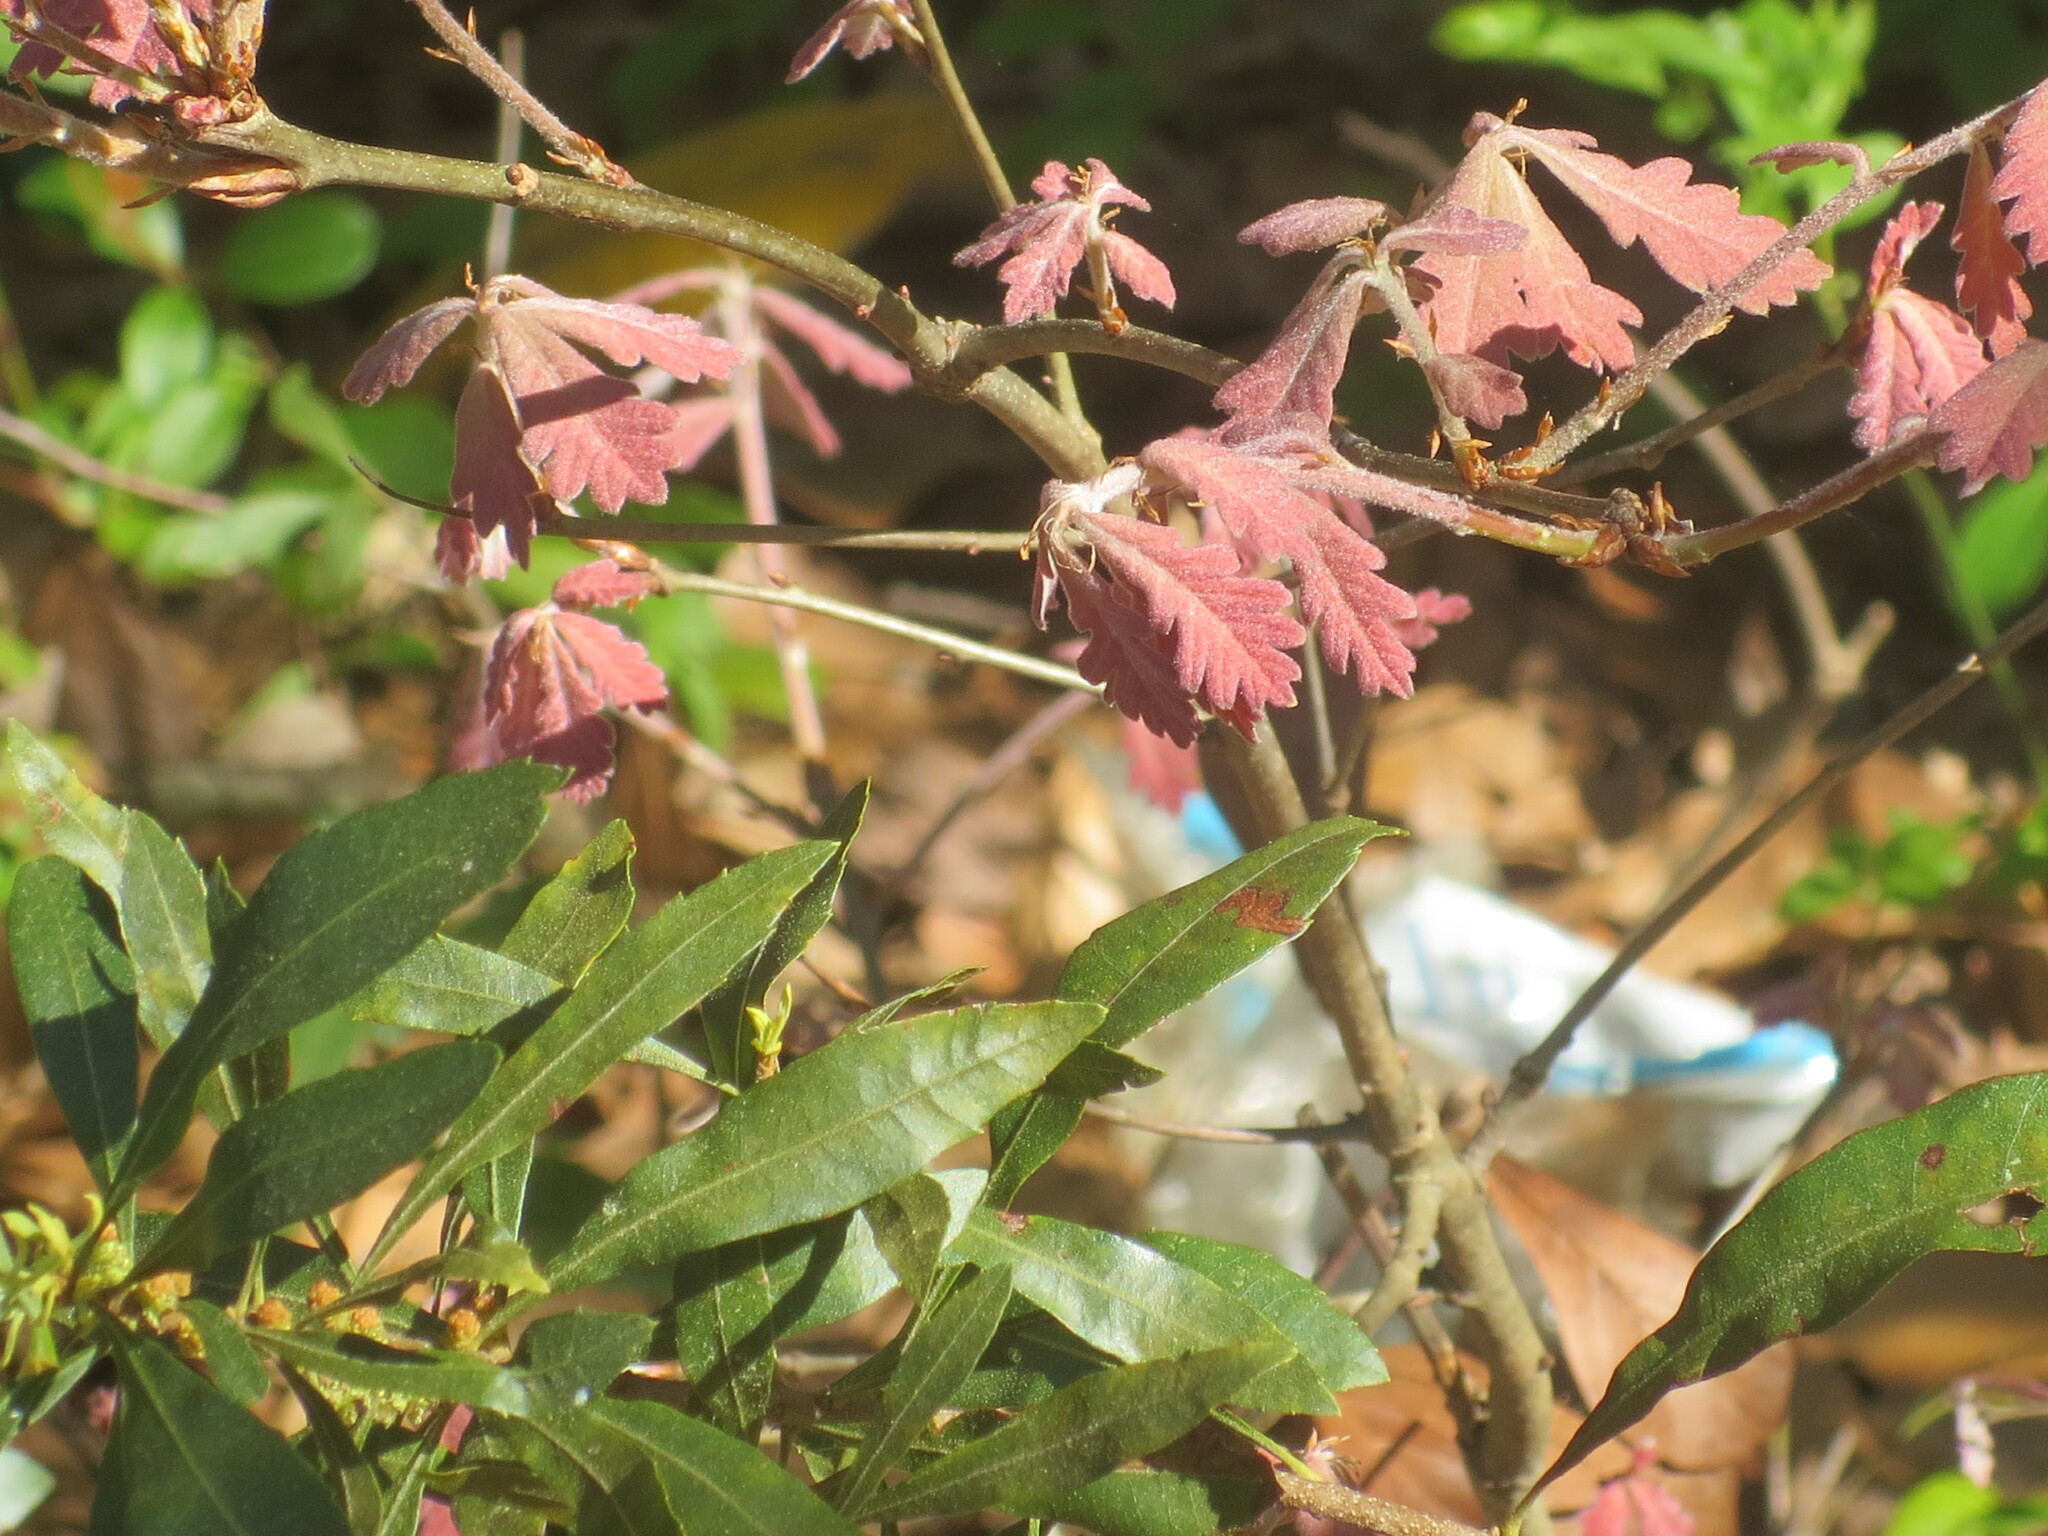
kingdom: Plantae
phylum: Tracheophyta
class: Magnoliopsida
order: Fagales
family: Fagaceae
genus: Quercus
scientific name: Quercus alba
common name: White oak
